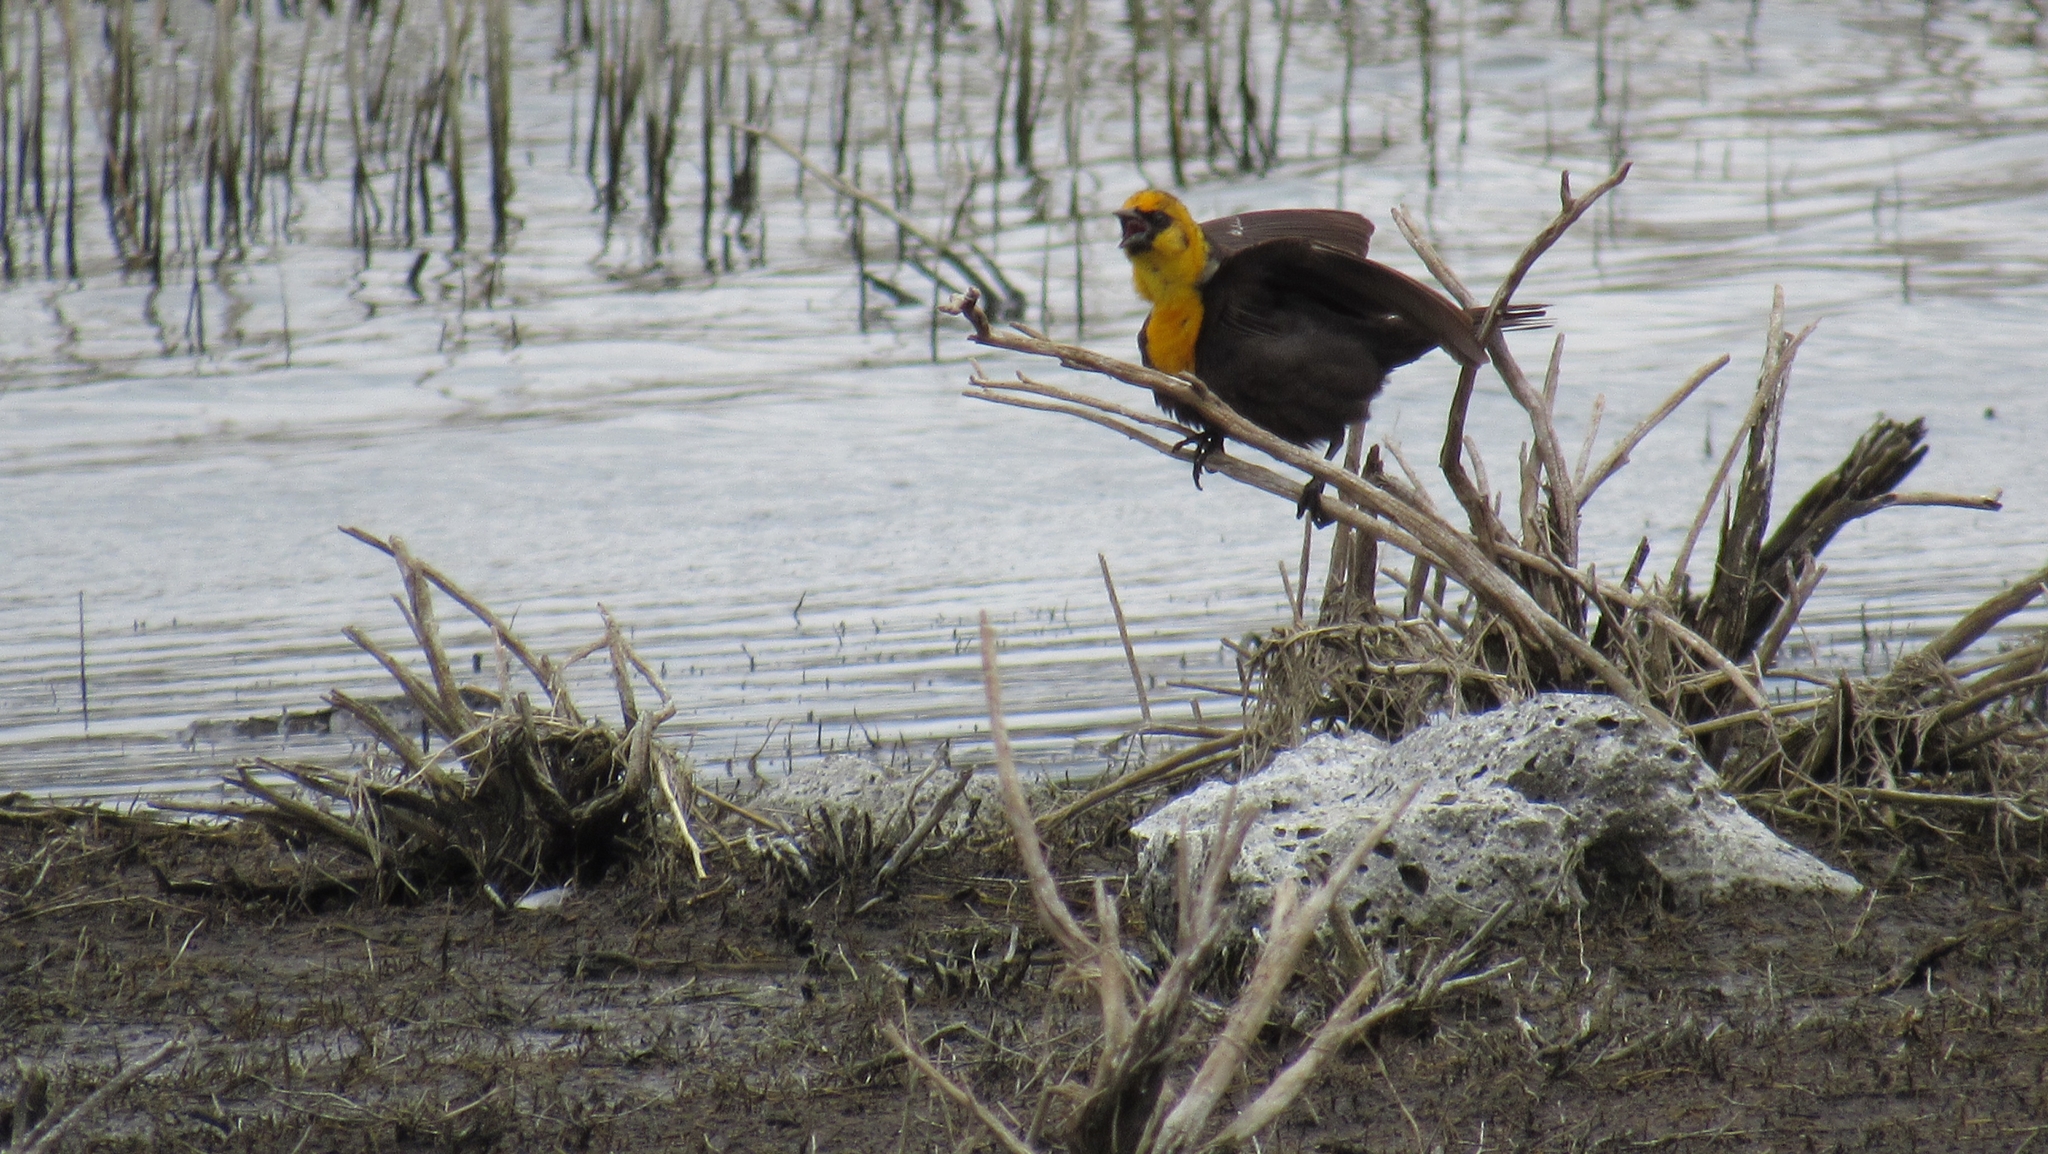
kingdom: Animalia
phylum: Chordata
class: Aves
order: Passeriformes
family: Icteridae
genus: Xanthocephalus
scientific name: Xanthocephalus xanthocephalus
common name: Yellow-headed blackbird
